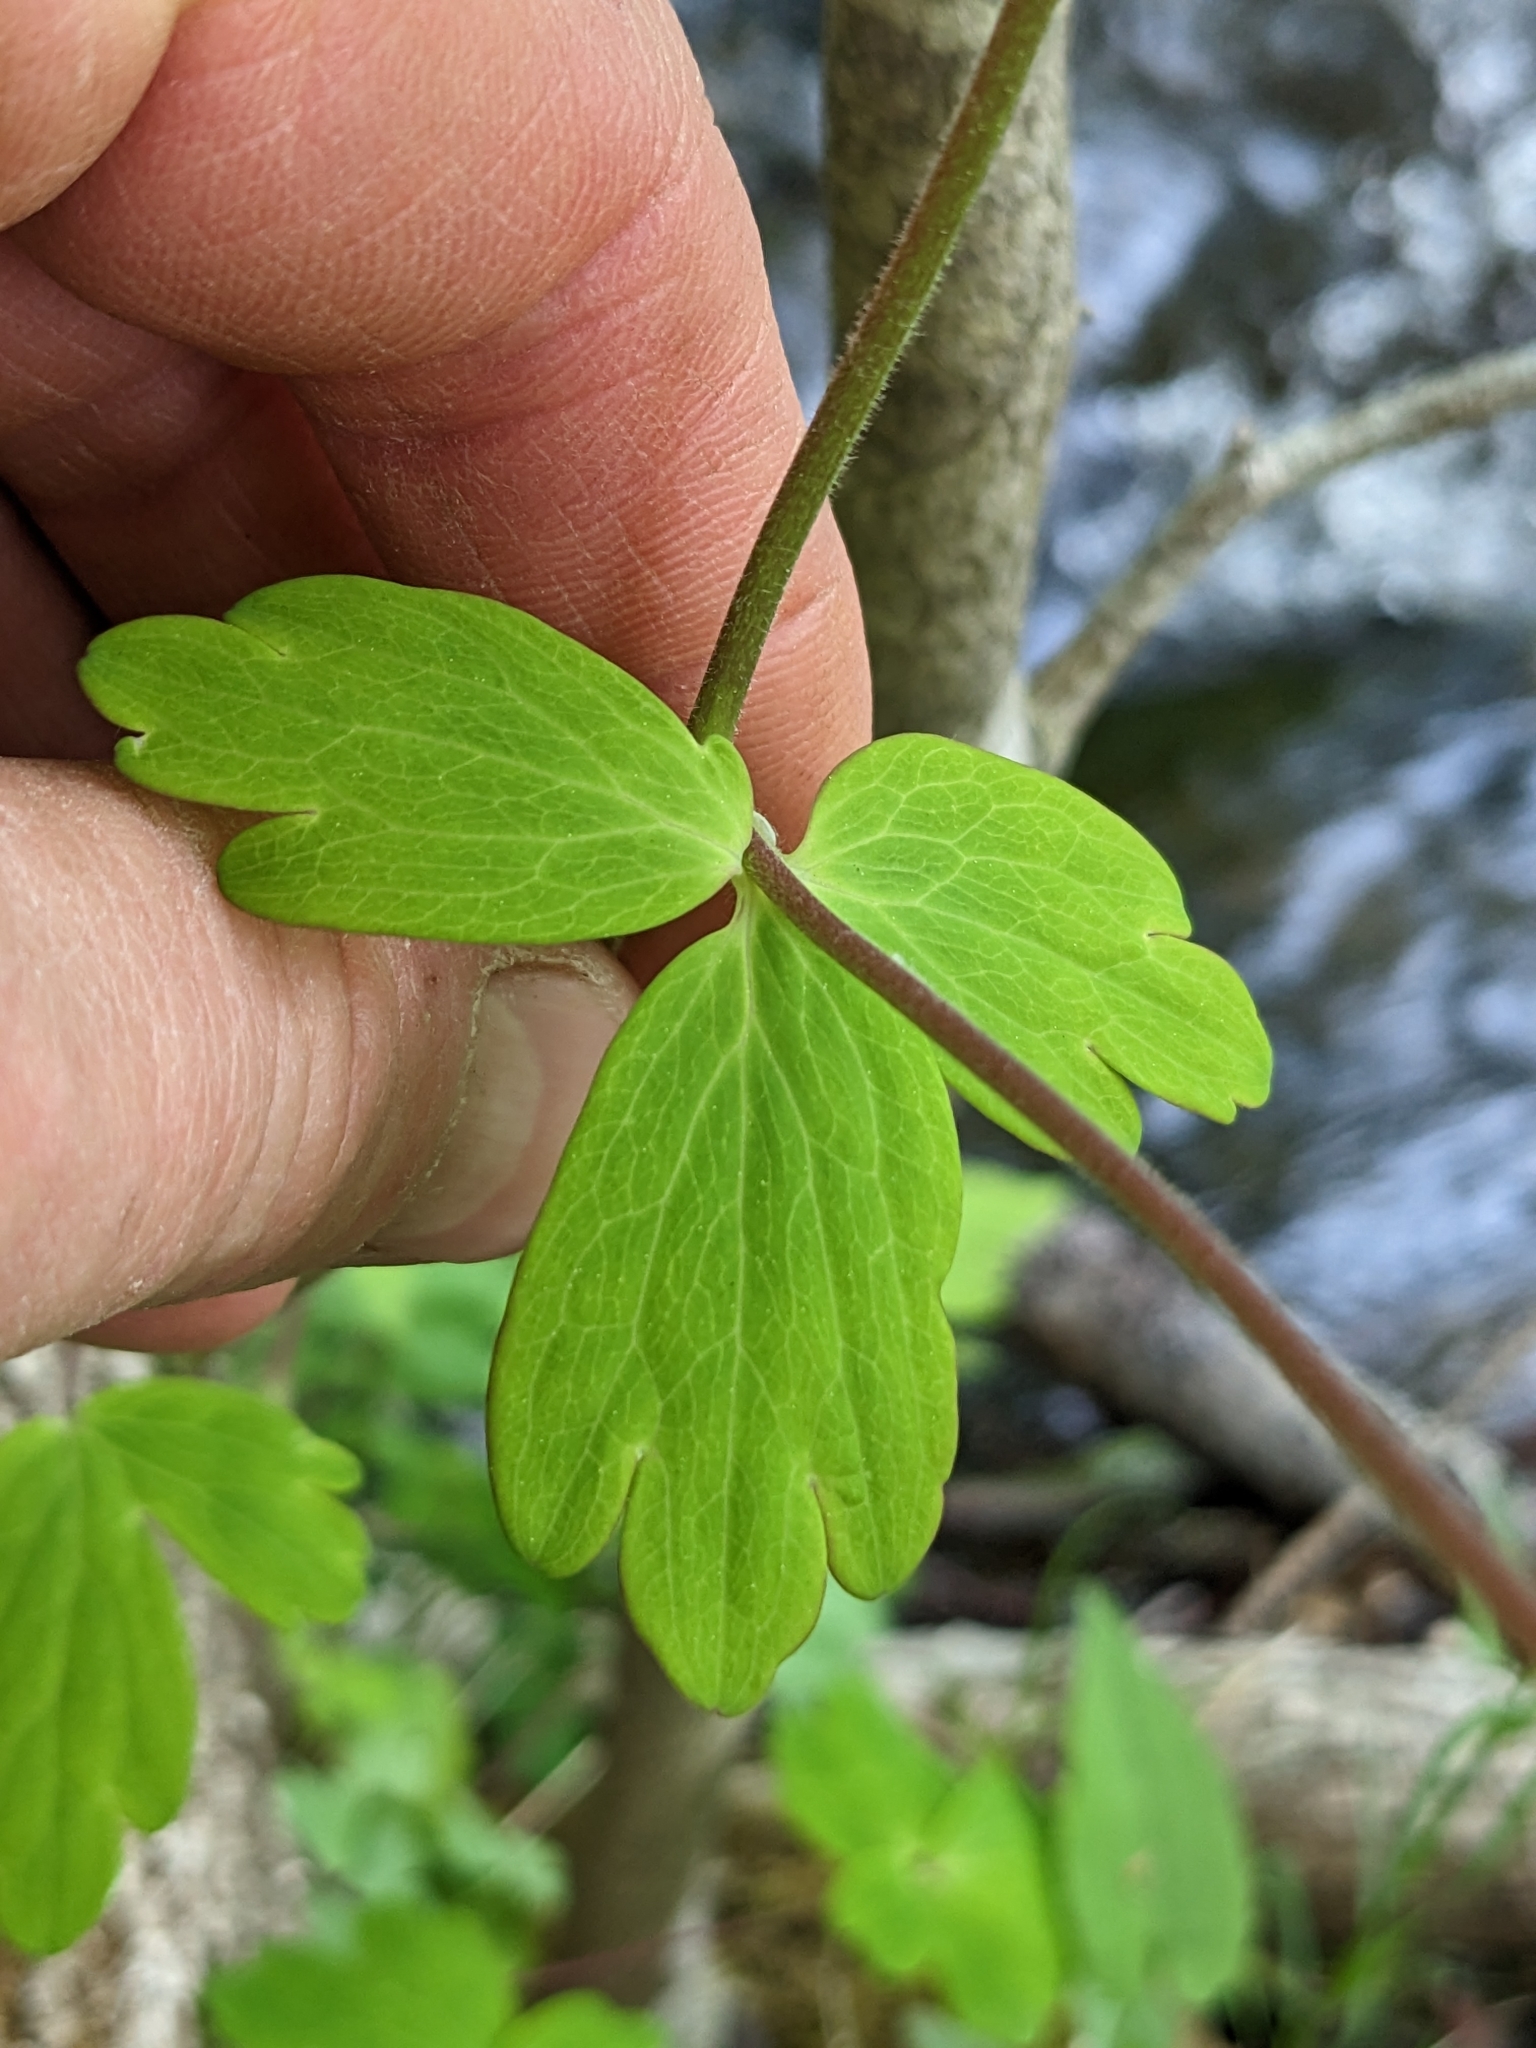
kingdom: Plantae
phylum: Tracheophyta
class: Magnoliopsida
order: Ranunculales
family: Ranunculaceae
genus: Aquilegia
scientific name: Aquilegia canadensis
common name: American columbine
